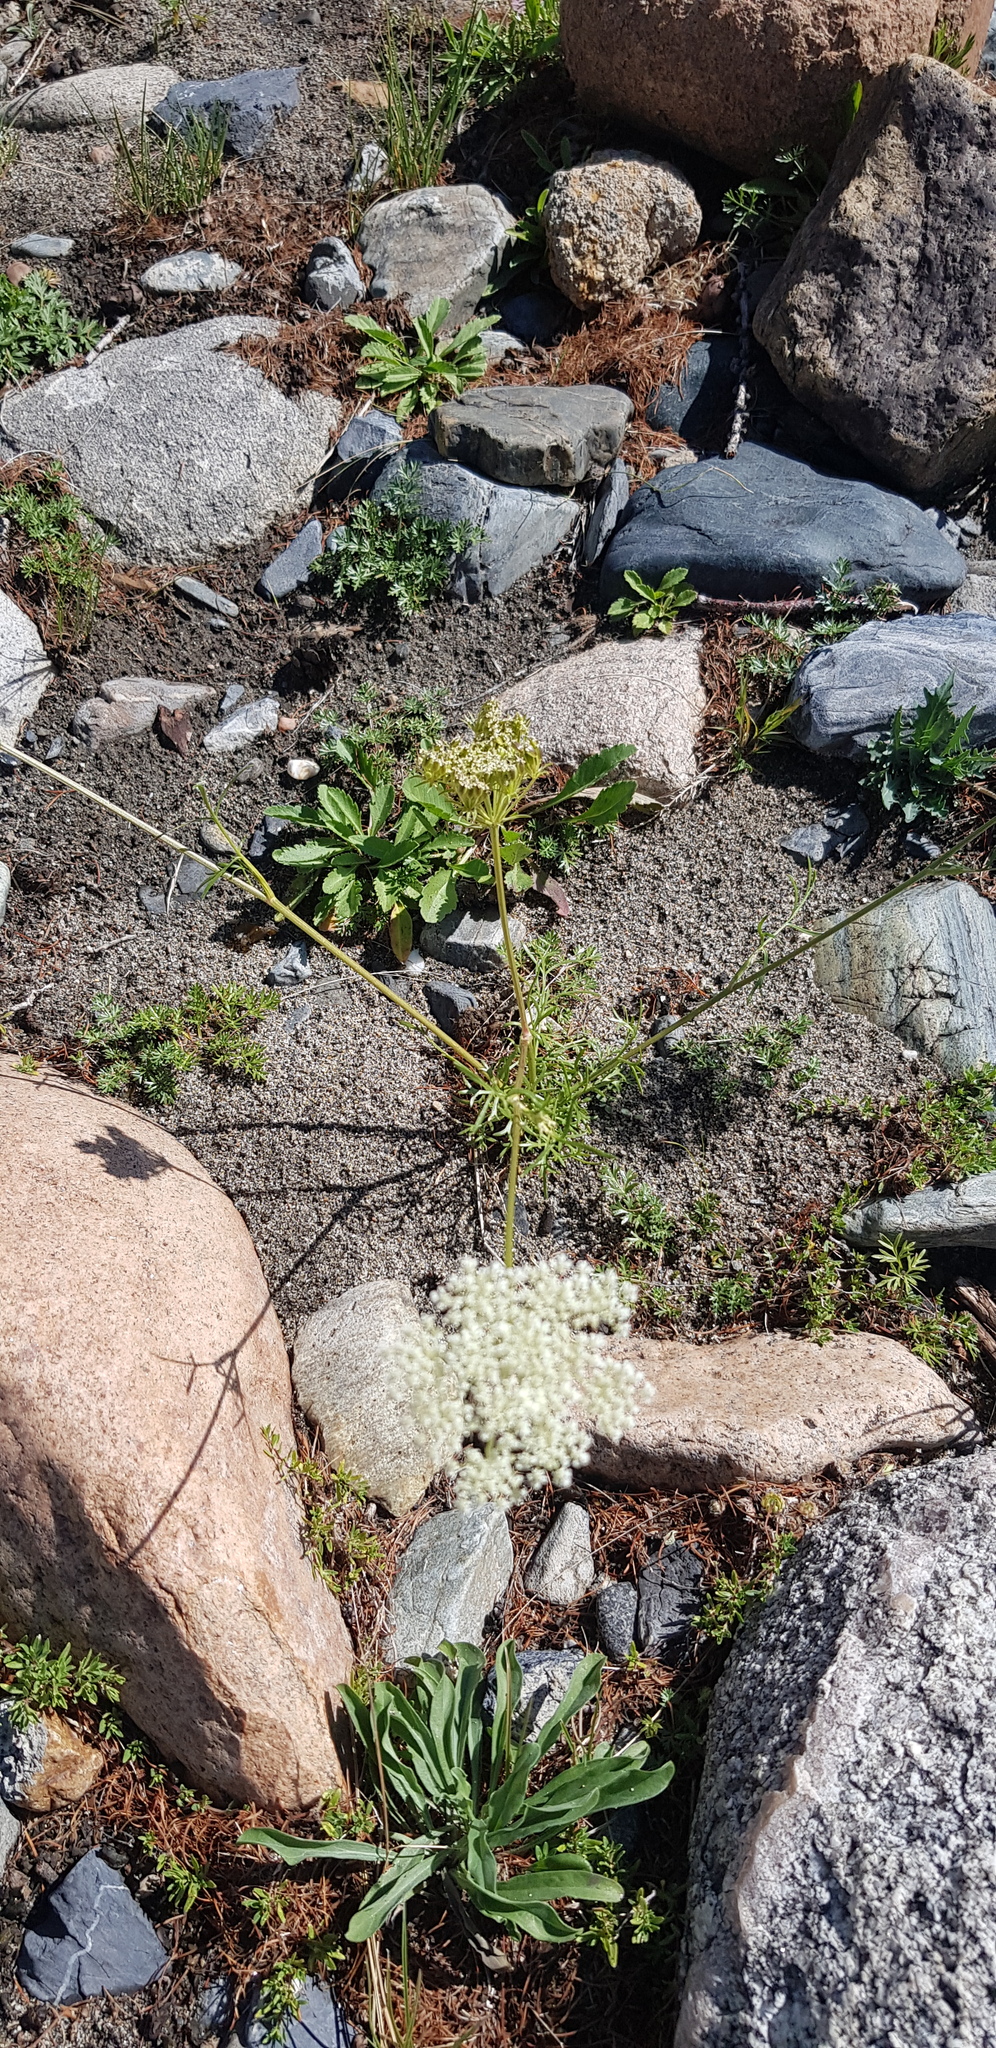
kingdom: Plantae
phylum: Tracheophyta
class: Magnoliopsida
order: Apiales
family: Apiaceae
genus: Kitagawia
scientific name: Kitagawia baicalensis
